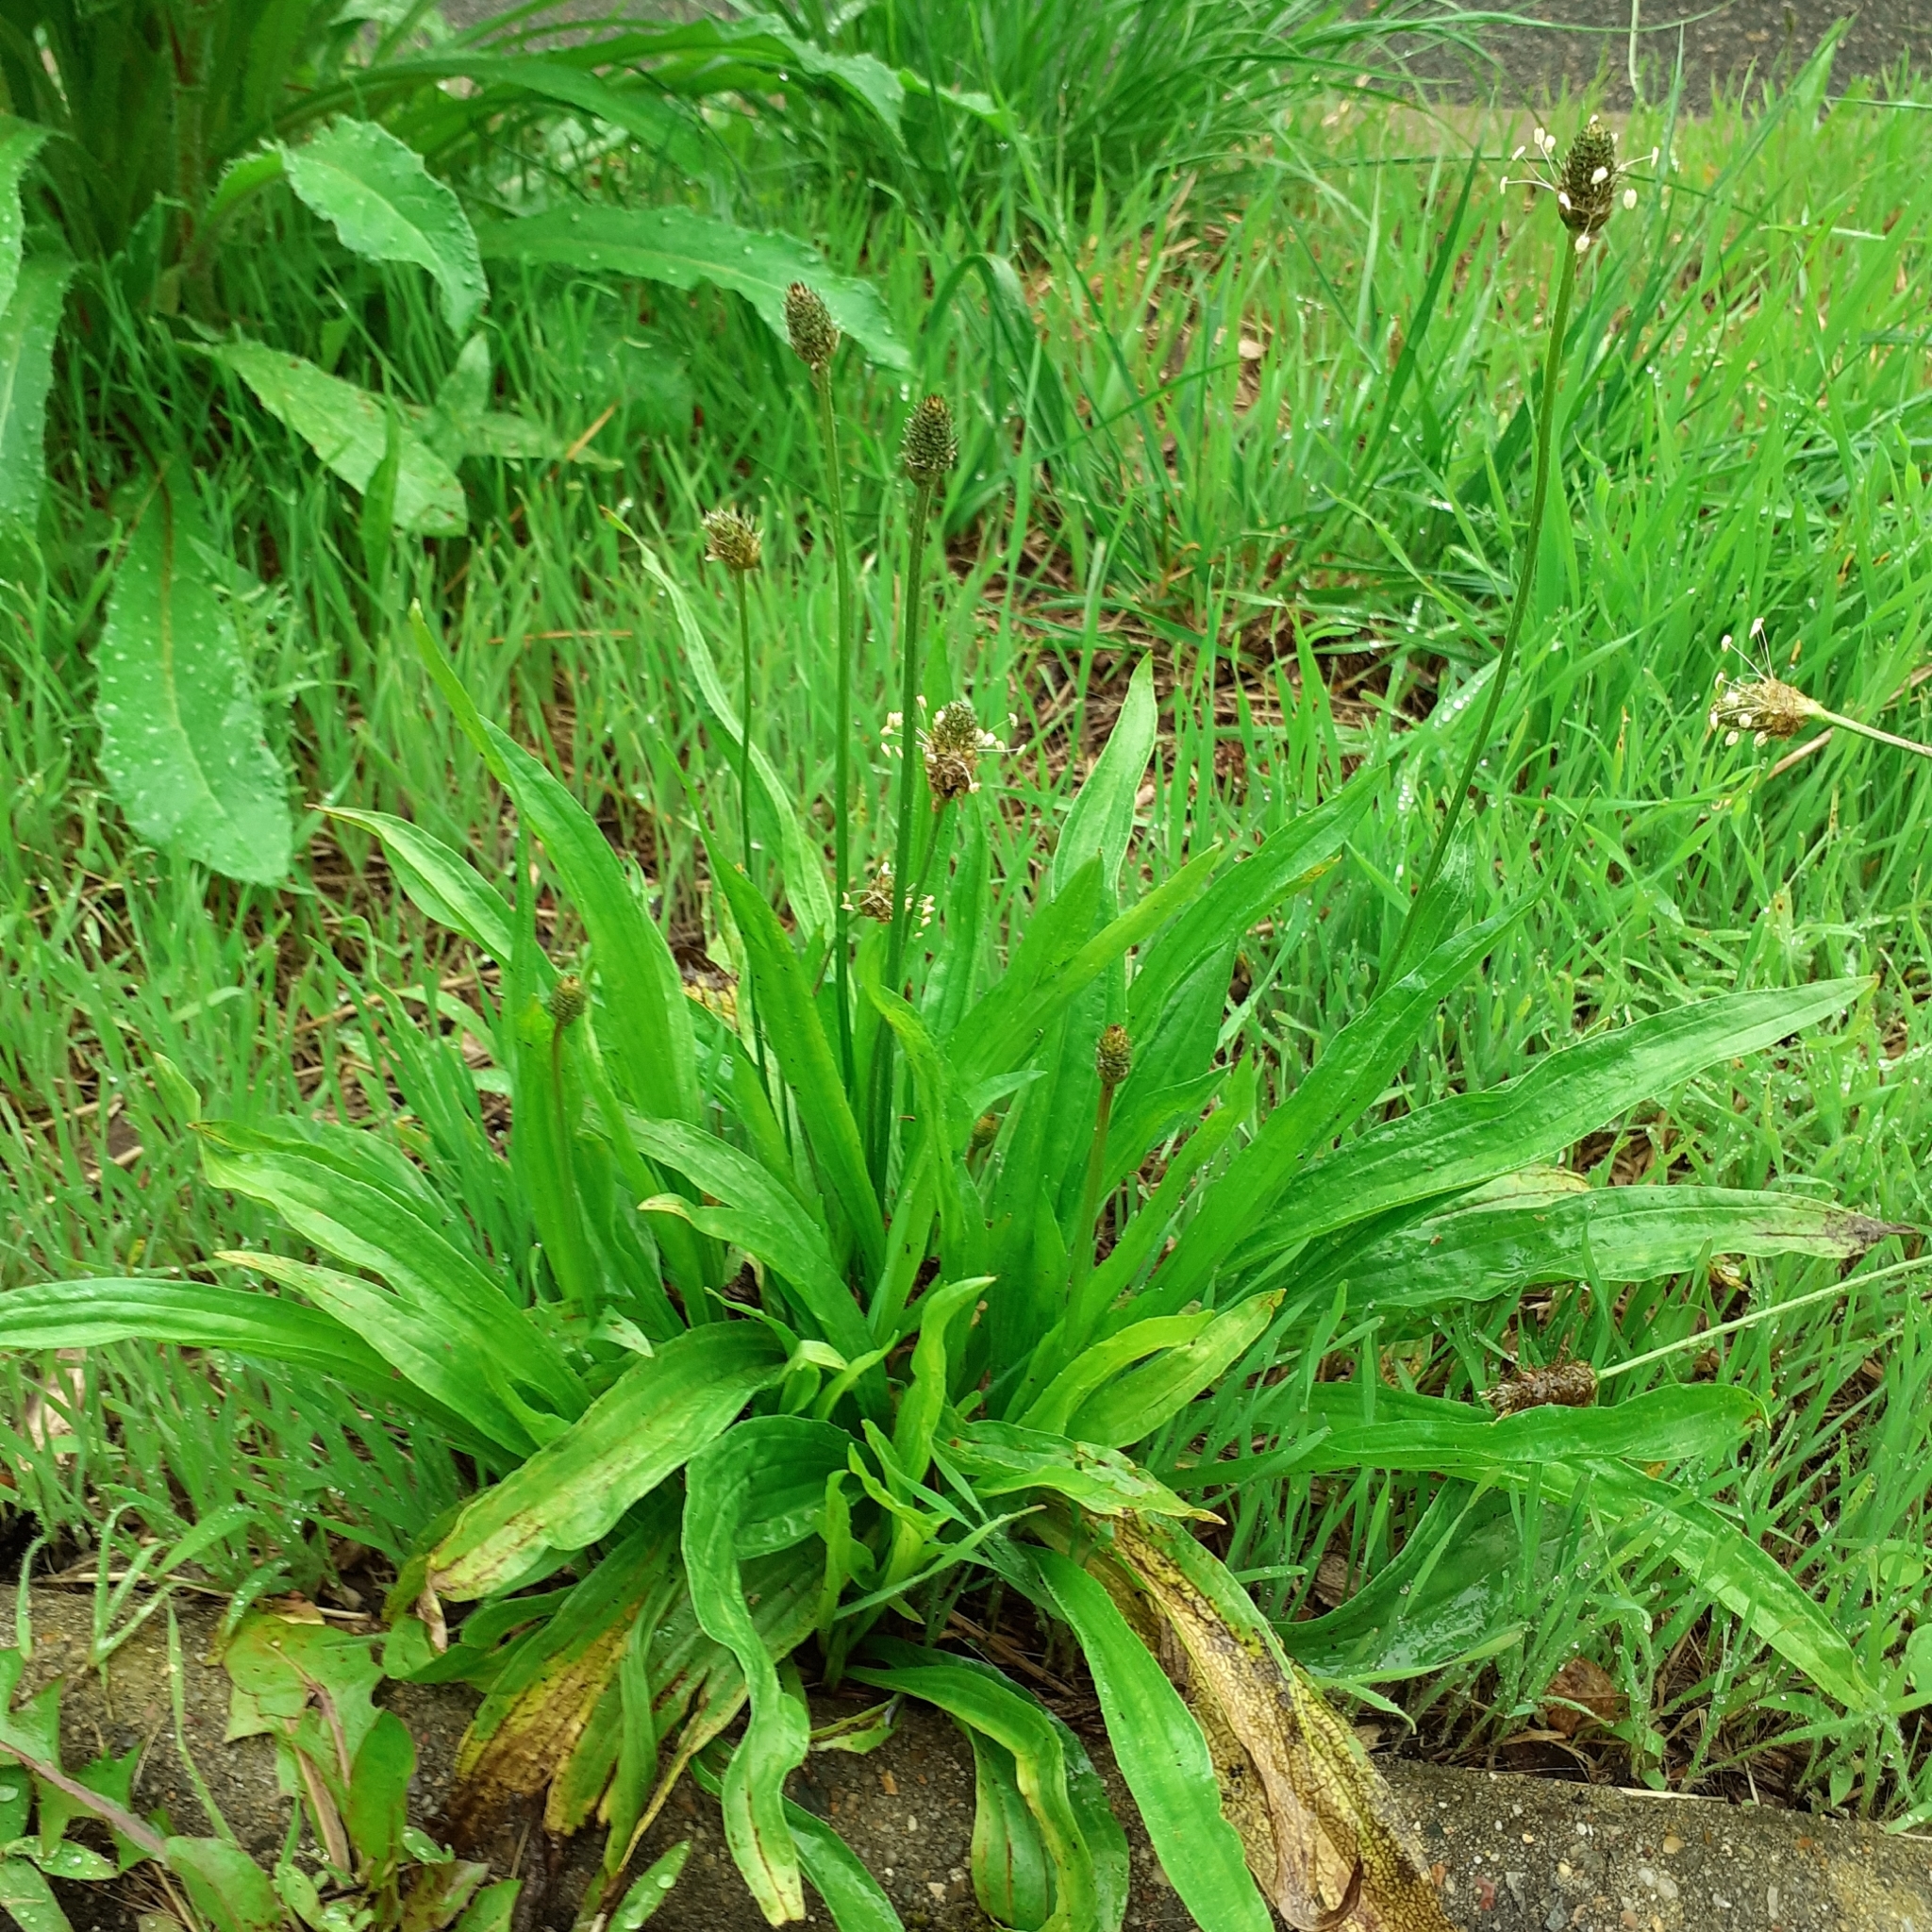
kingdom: Plantae
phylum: Tracheophyta
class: Magnoliopsida
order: Lamiales
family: Plantaginaceae
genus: Plantago
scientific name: Plantago lanceolata
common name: Ribwort plantain
